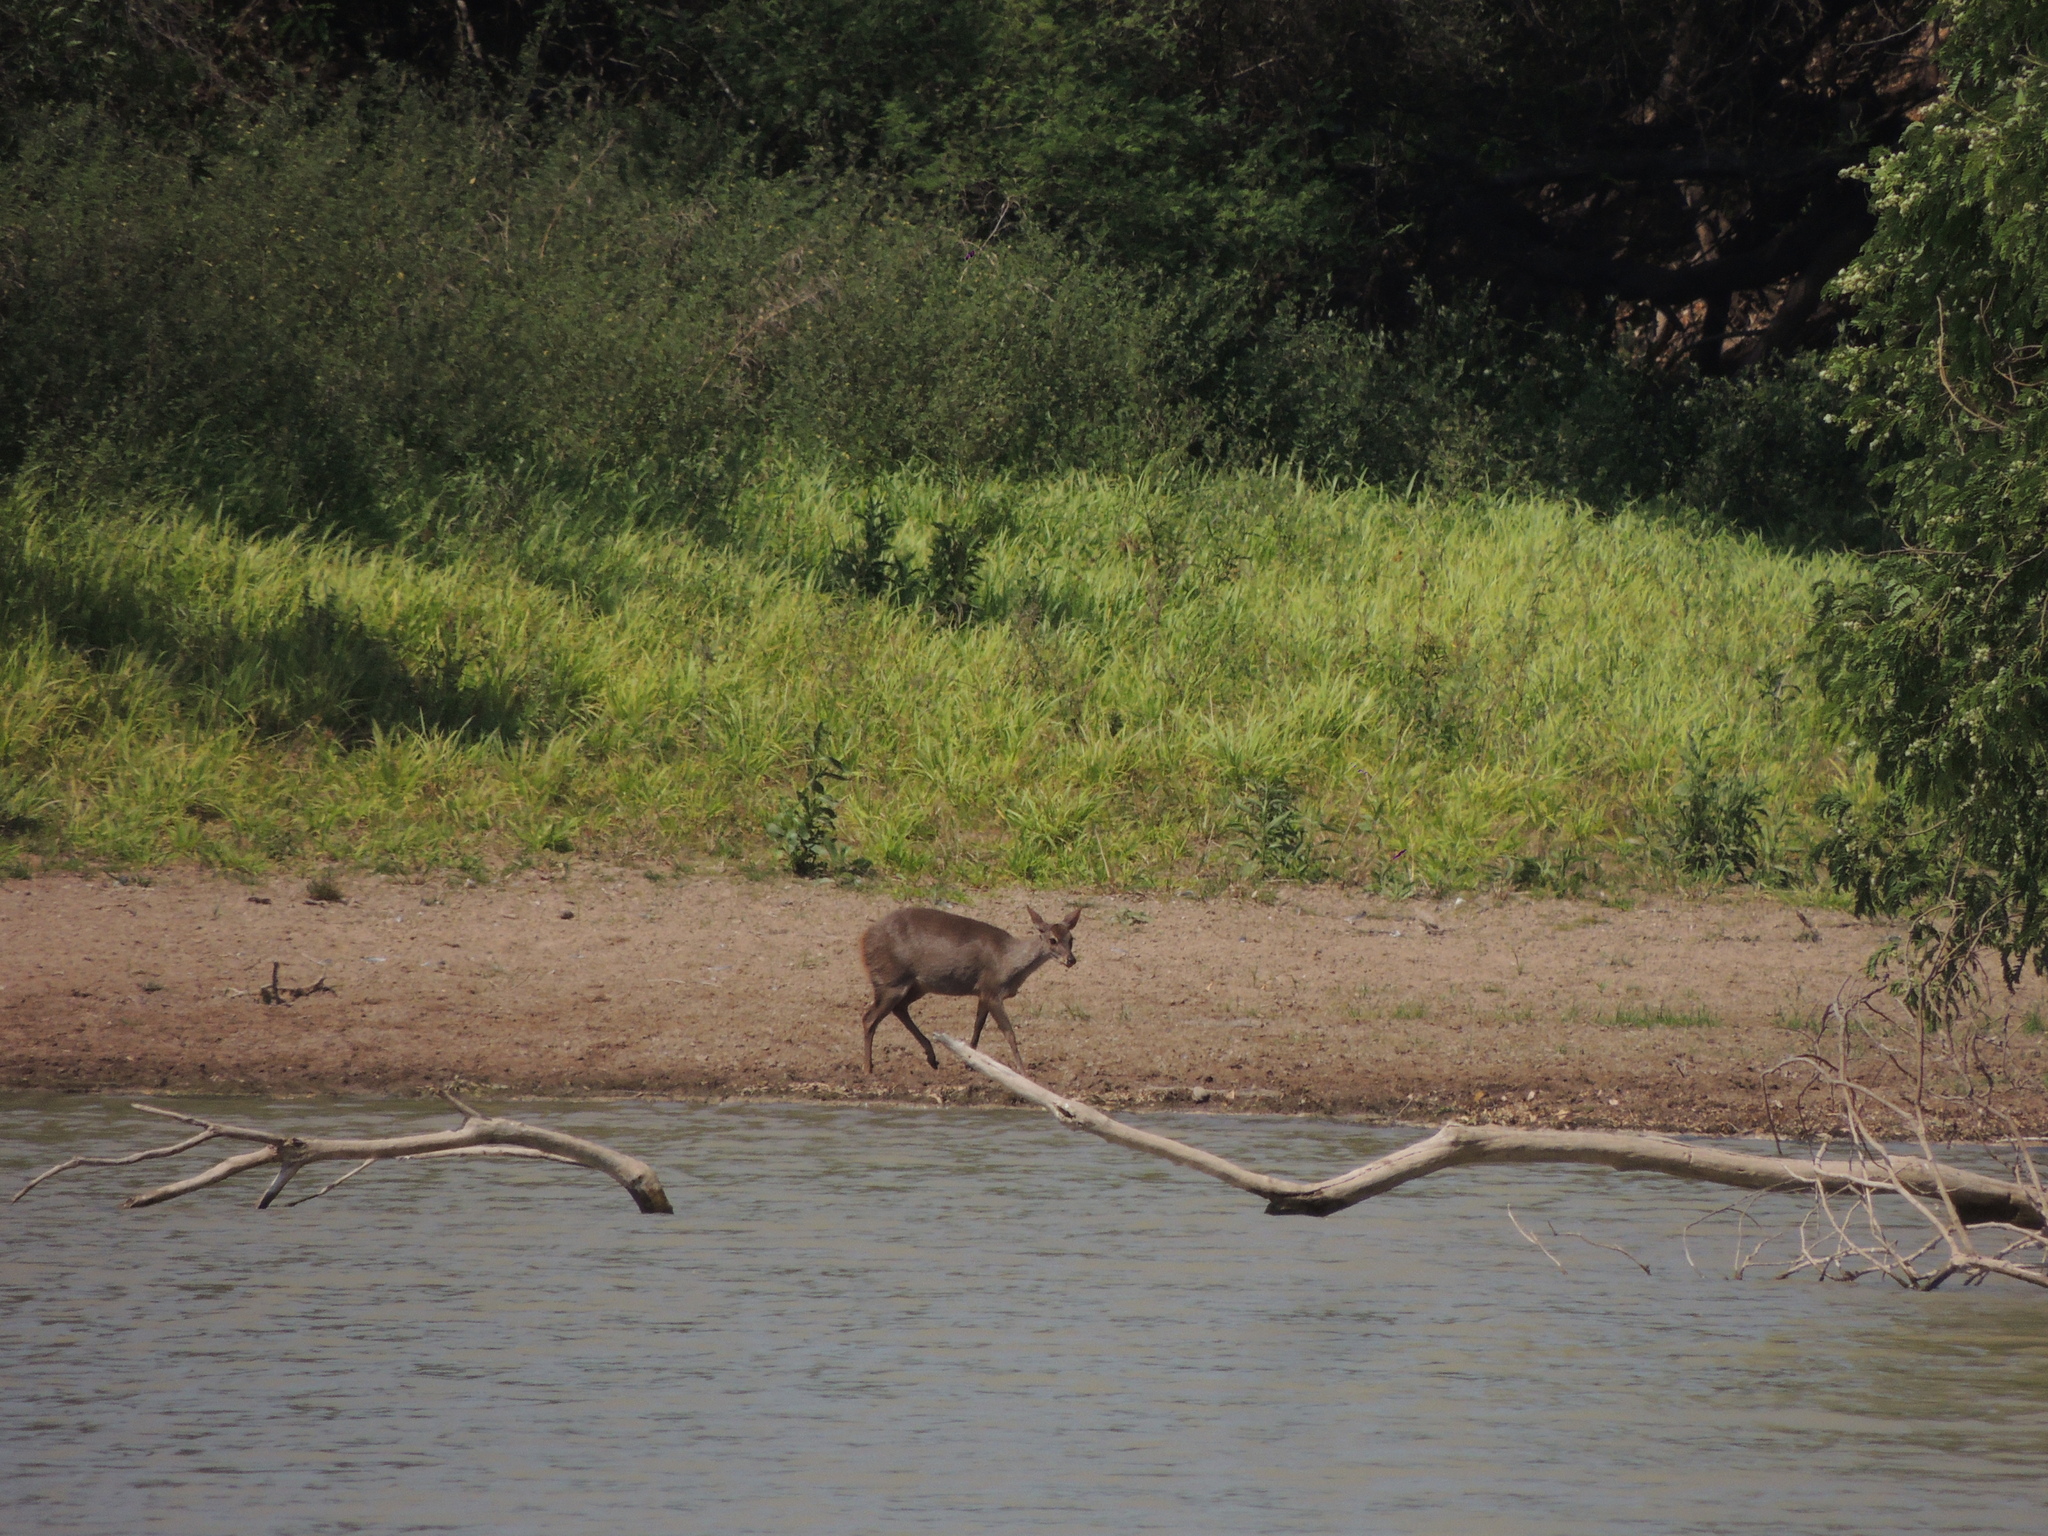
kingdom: Animalia
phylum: Chordata
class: Mammalia
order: Artiodactyla
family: Cervidae
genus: Mazama
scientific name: Mazama gouazoubira
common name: Gray brocket
